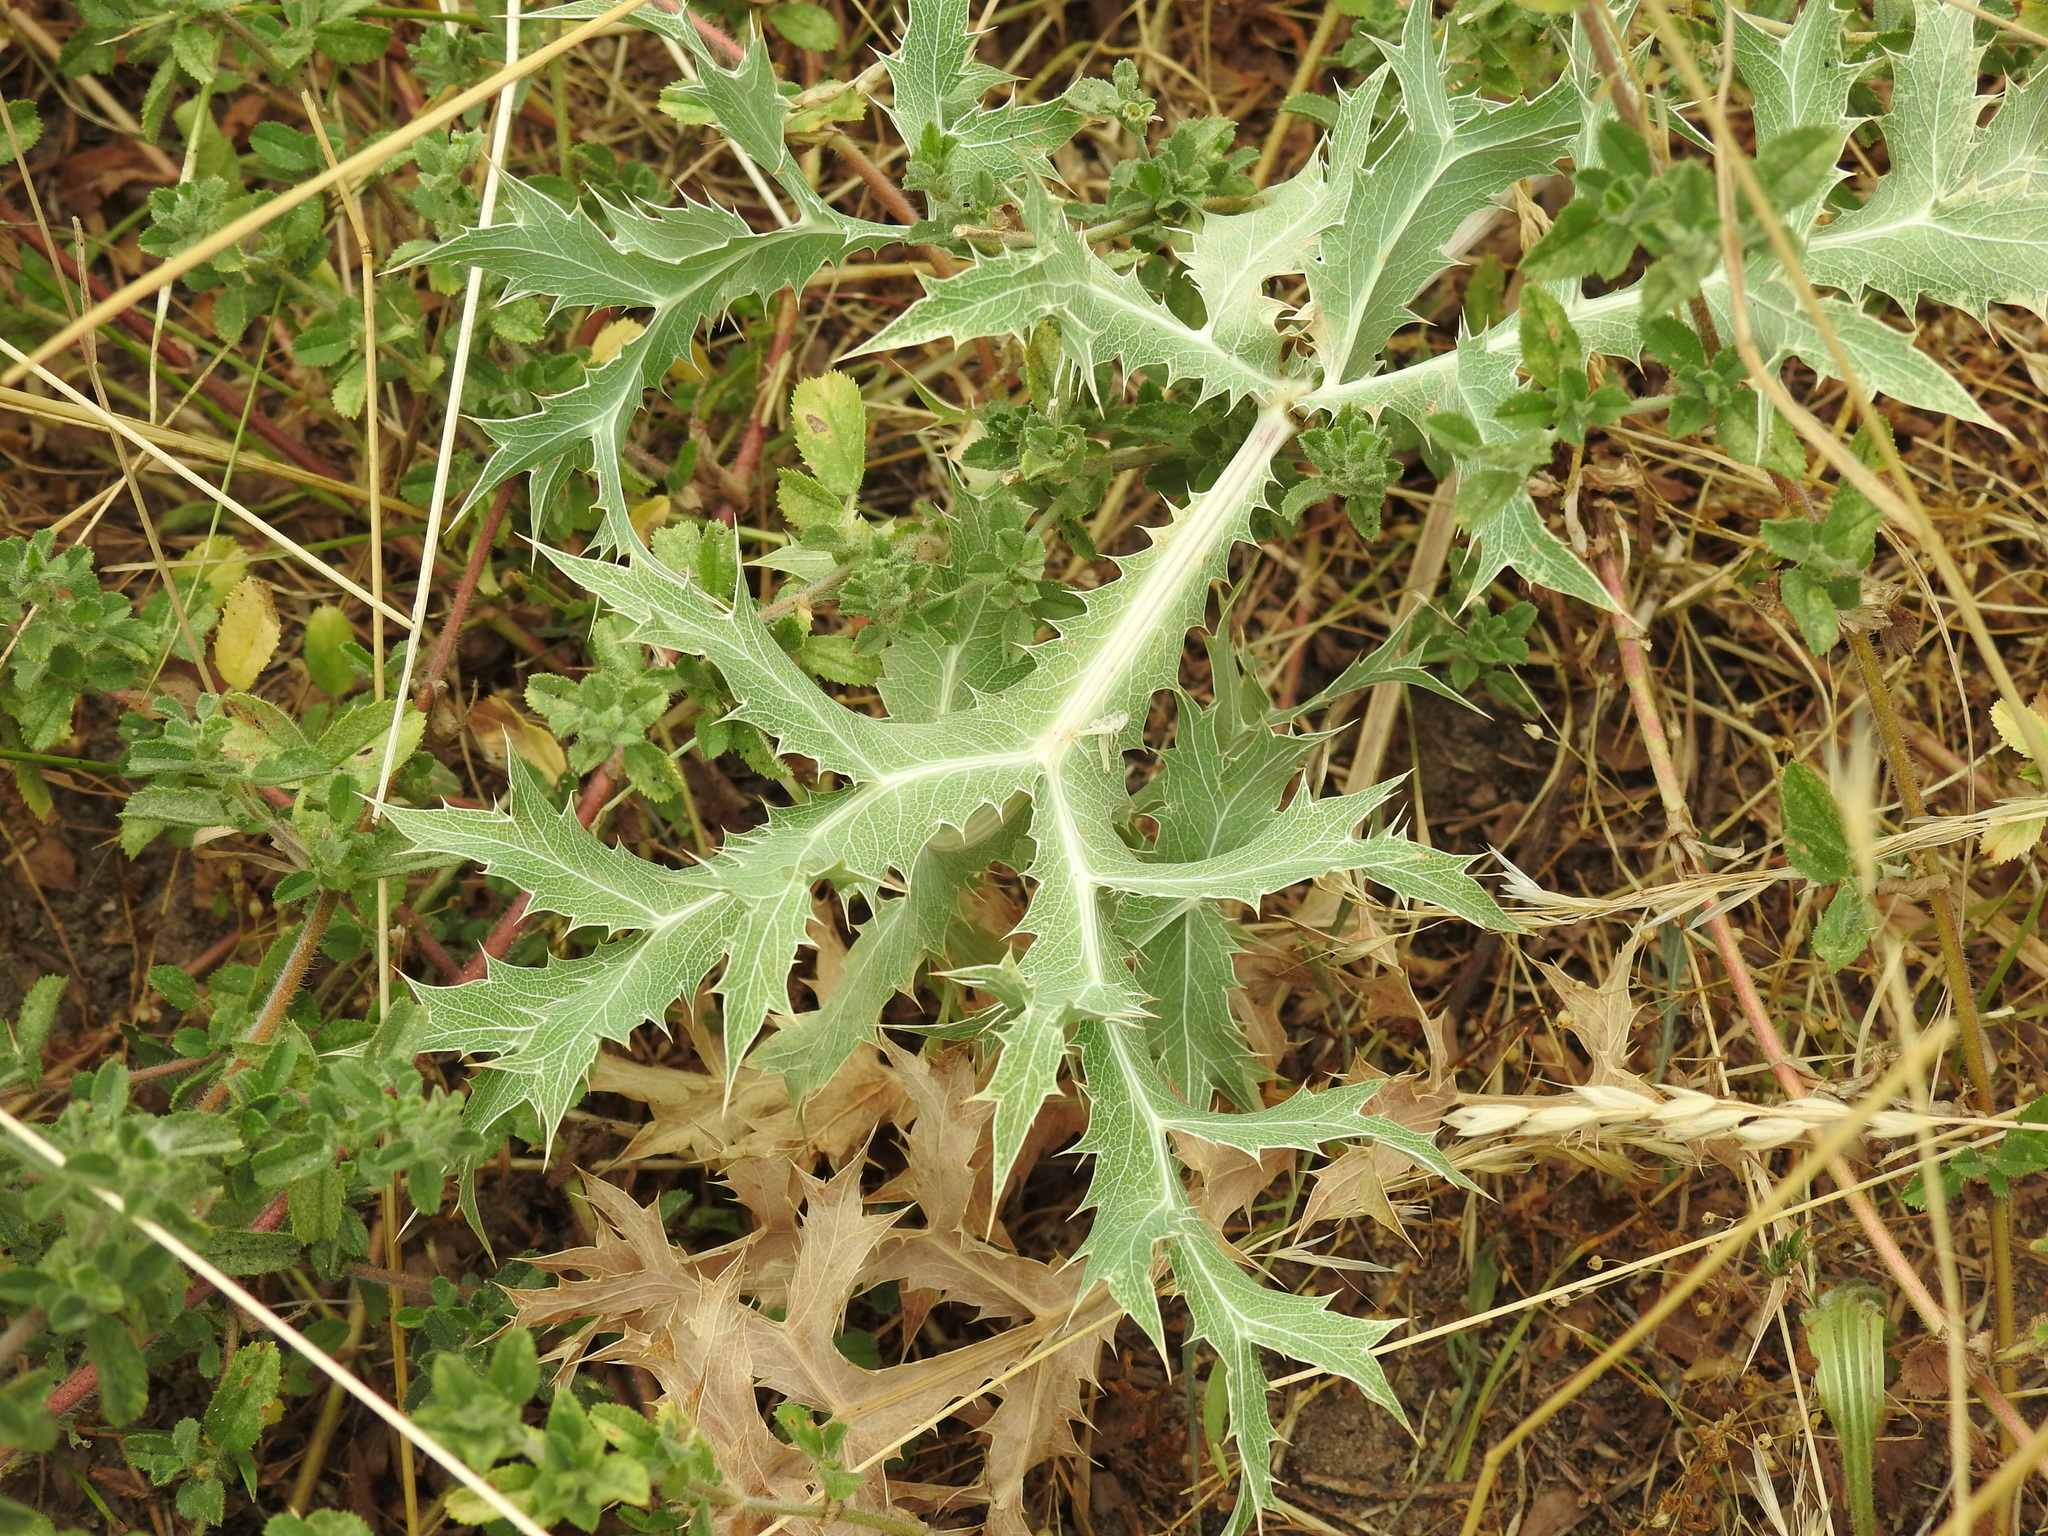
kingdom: Plantae
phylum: Tracheophyta
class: Magnoliopsida
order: Apiales
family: Apiaceae
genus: Eryngium
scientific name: Eryngium campestre
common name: Field eryngo
